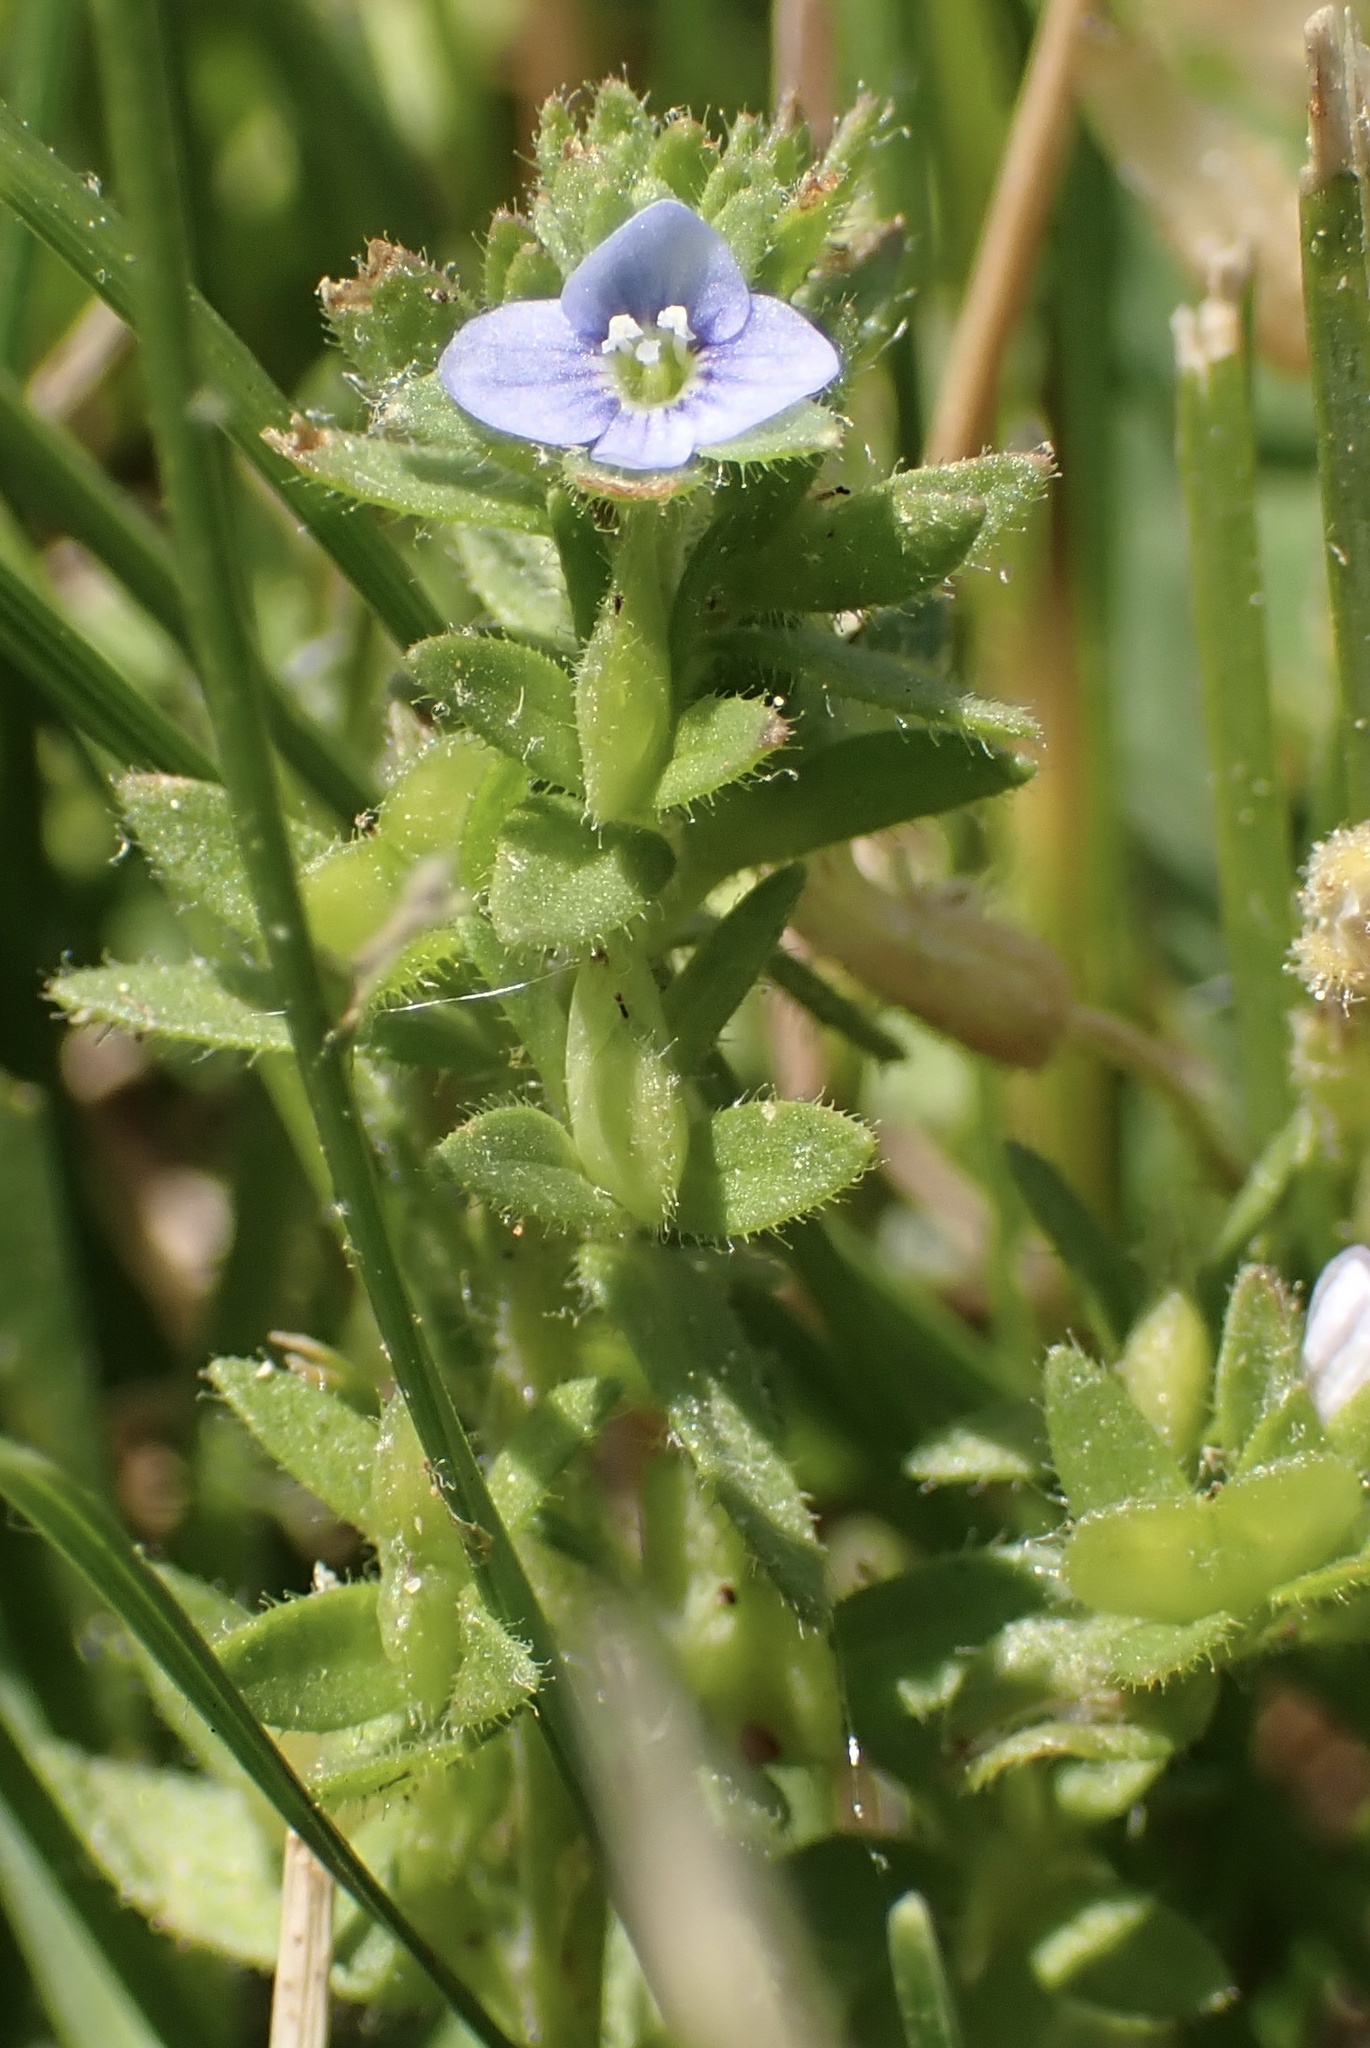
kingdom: Plantae
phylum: Tracheophyta
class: Magnoliopsida
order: Lamiales
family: Plantaginaceae
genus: Veronica
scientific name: Veronica arvensis
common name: Corn speedwell
